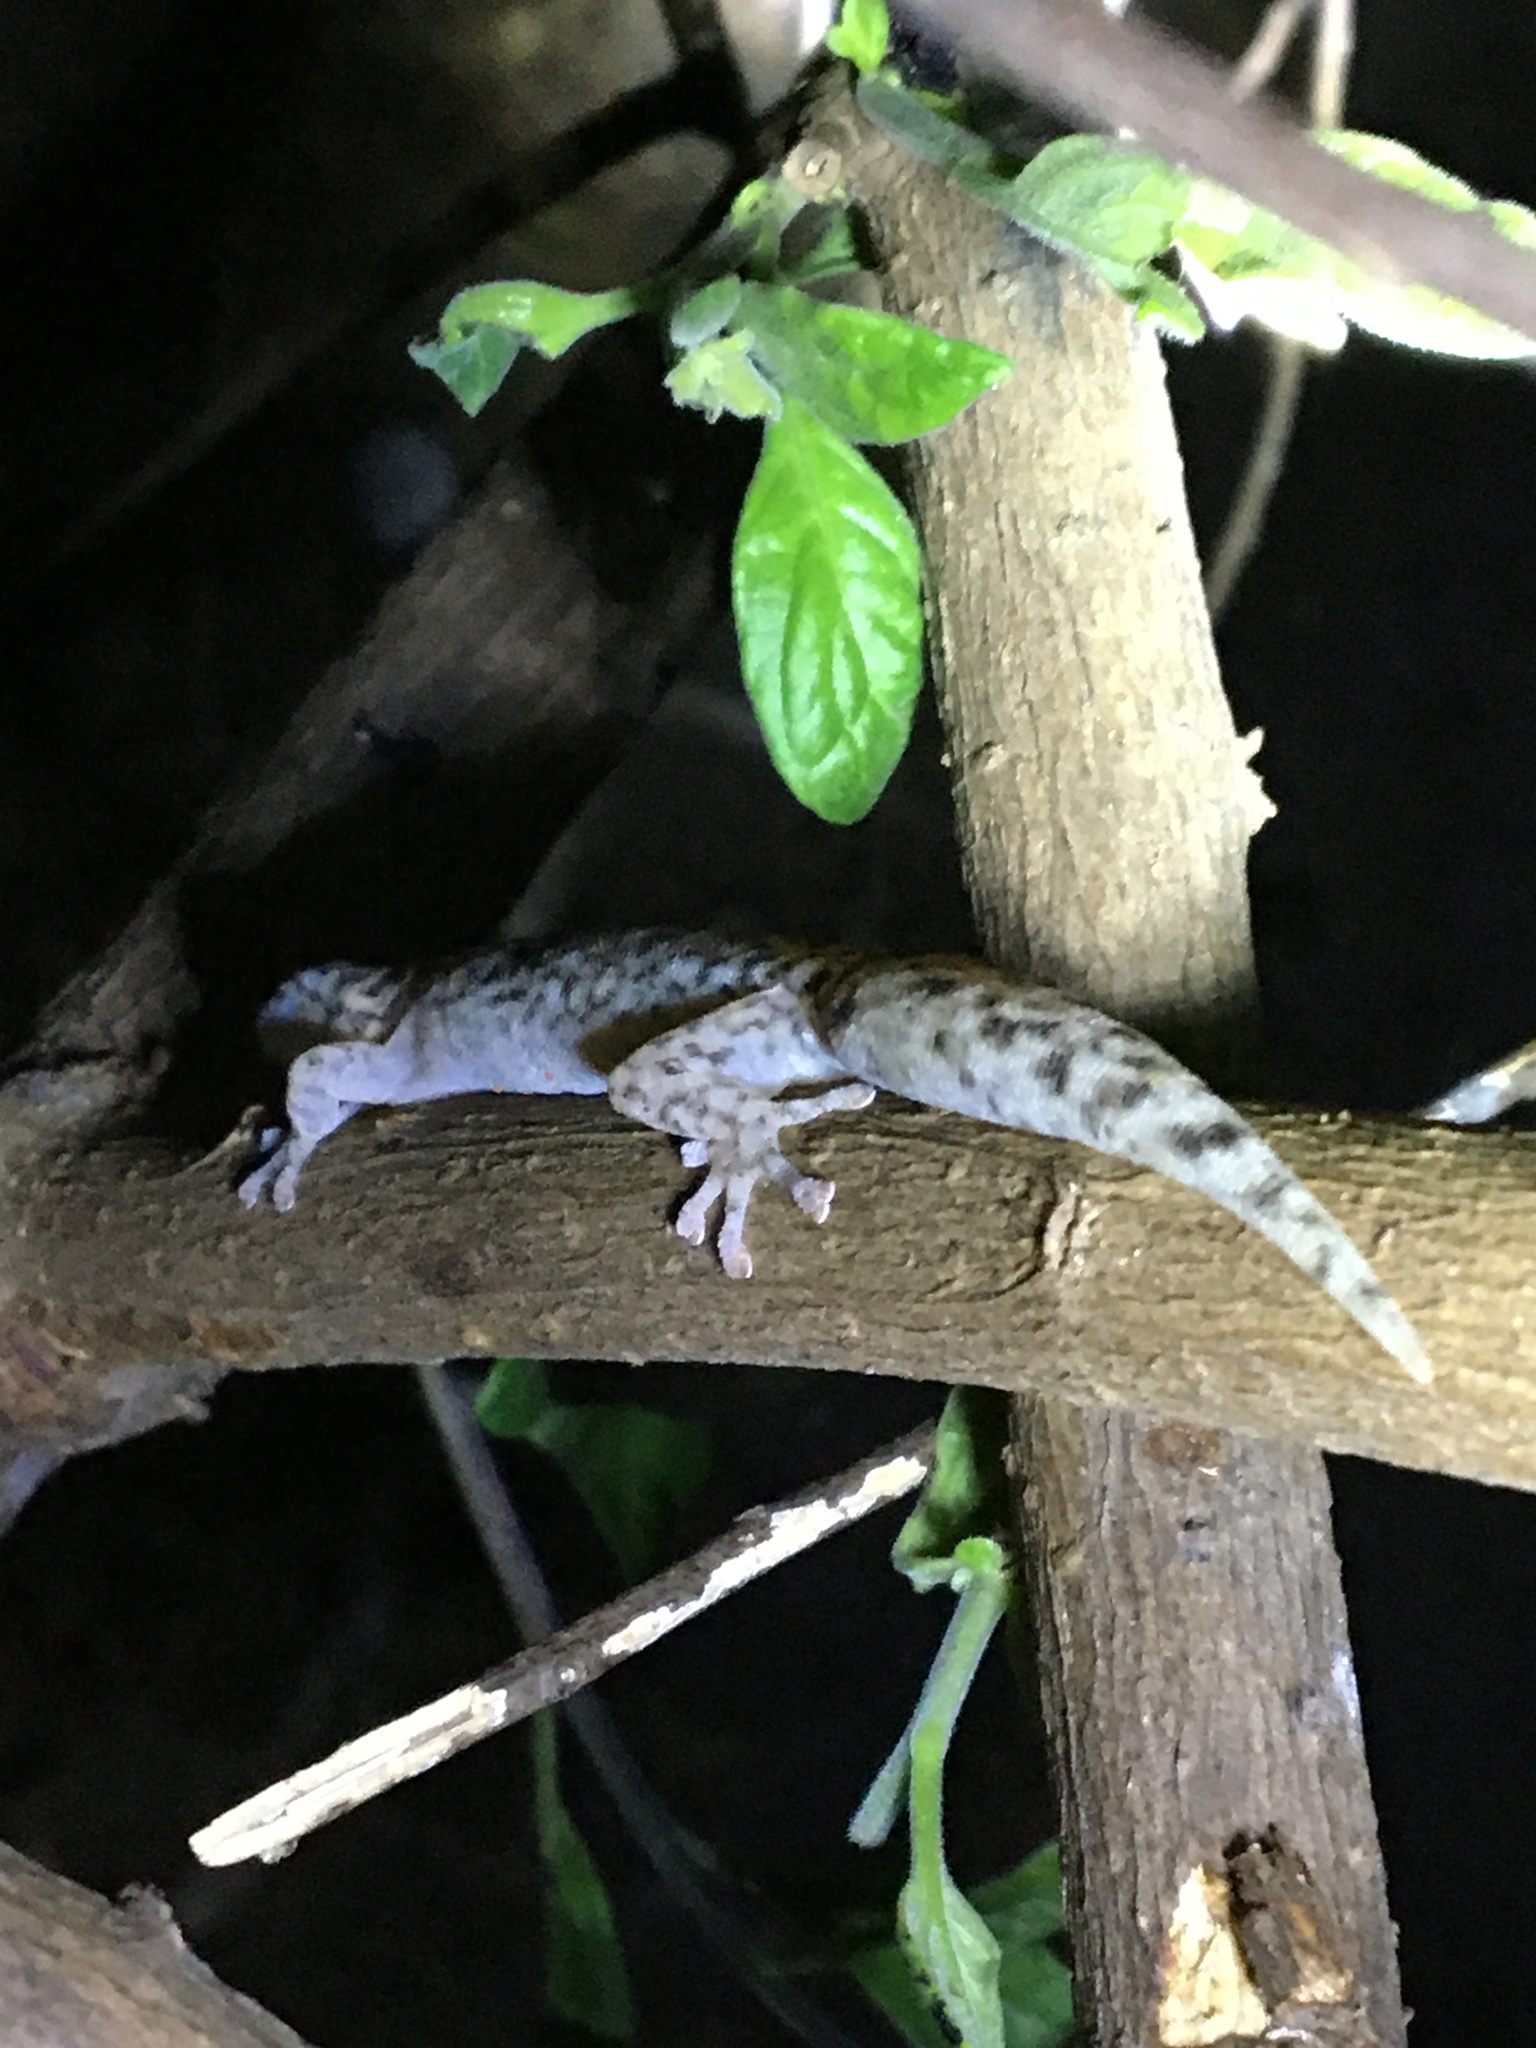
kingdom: Animalia
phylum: Chordata
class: Squamata
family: Gekkonidae
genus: Afrogecko
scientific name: Afrogecko porphyreus
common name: Marbled leaf-toed gecko
